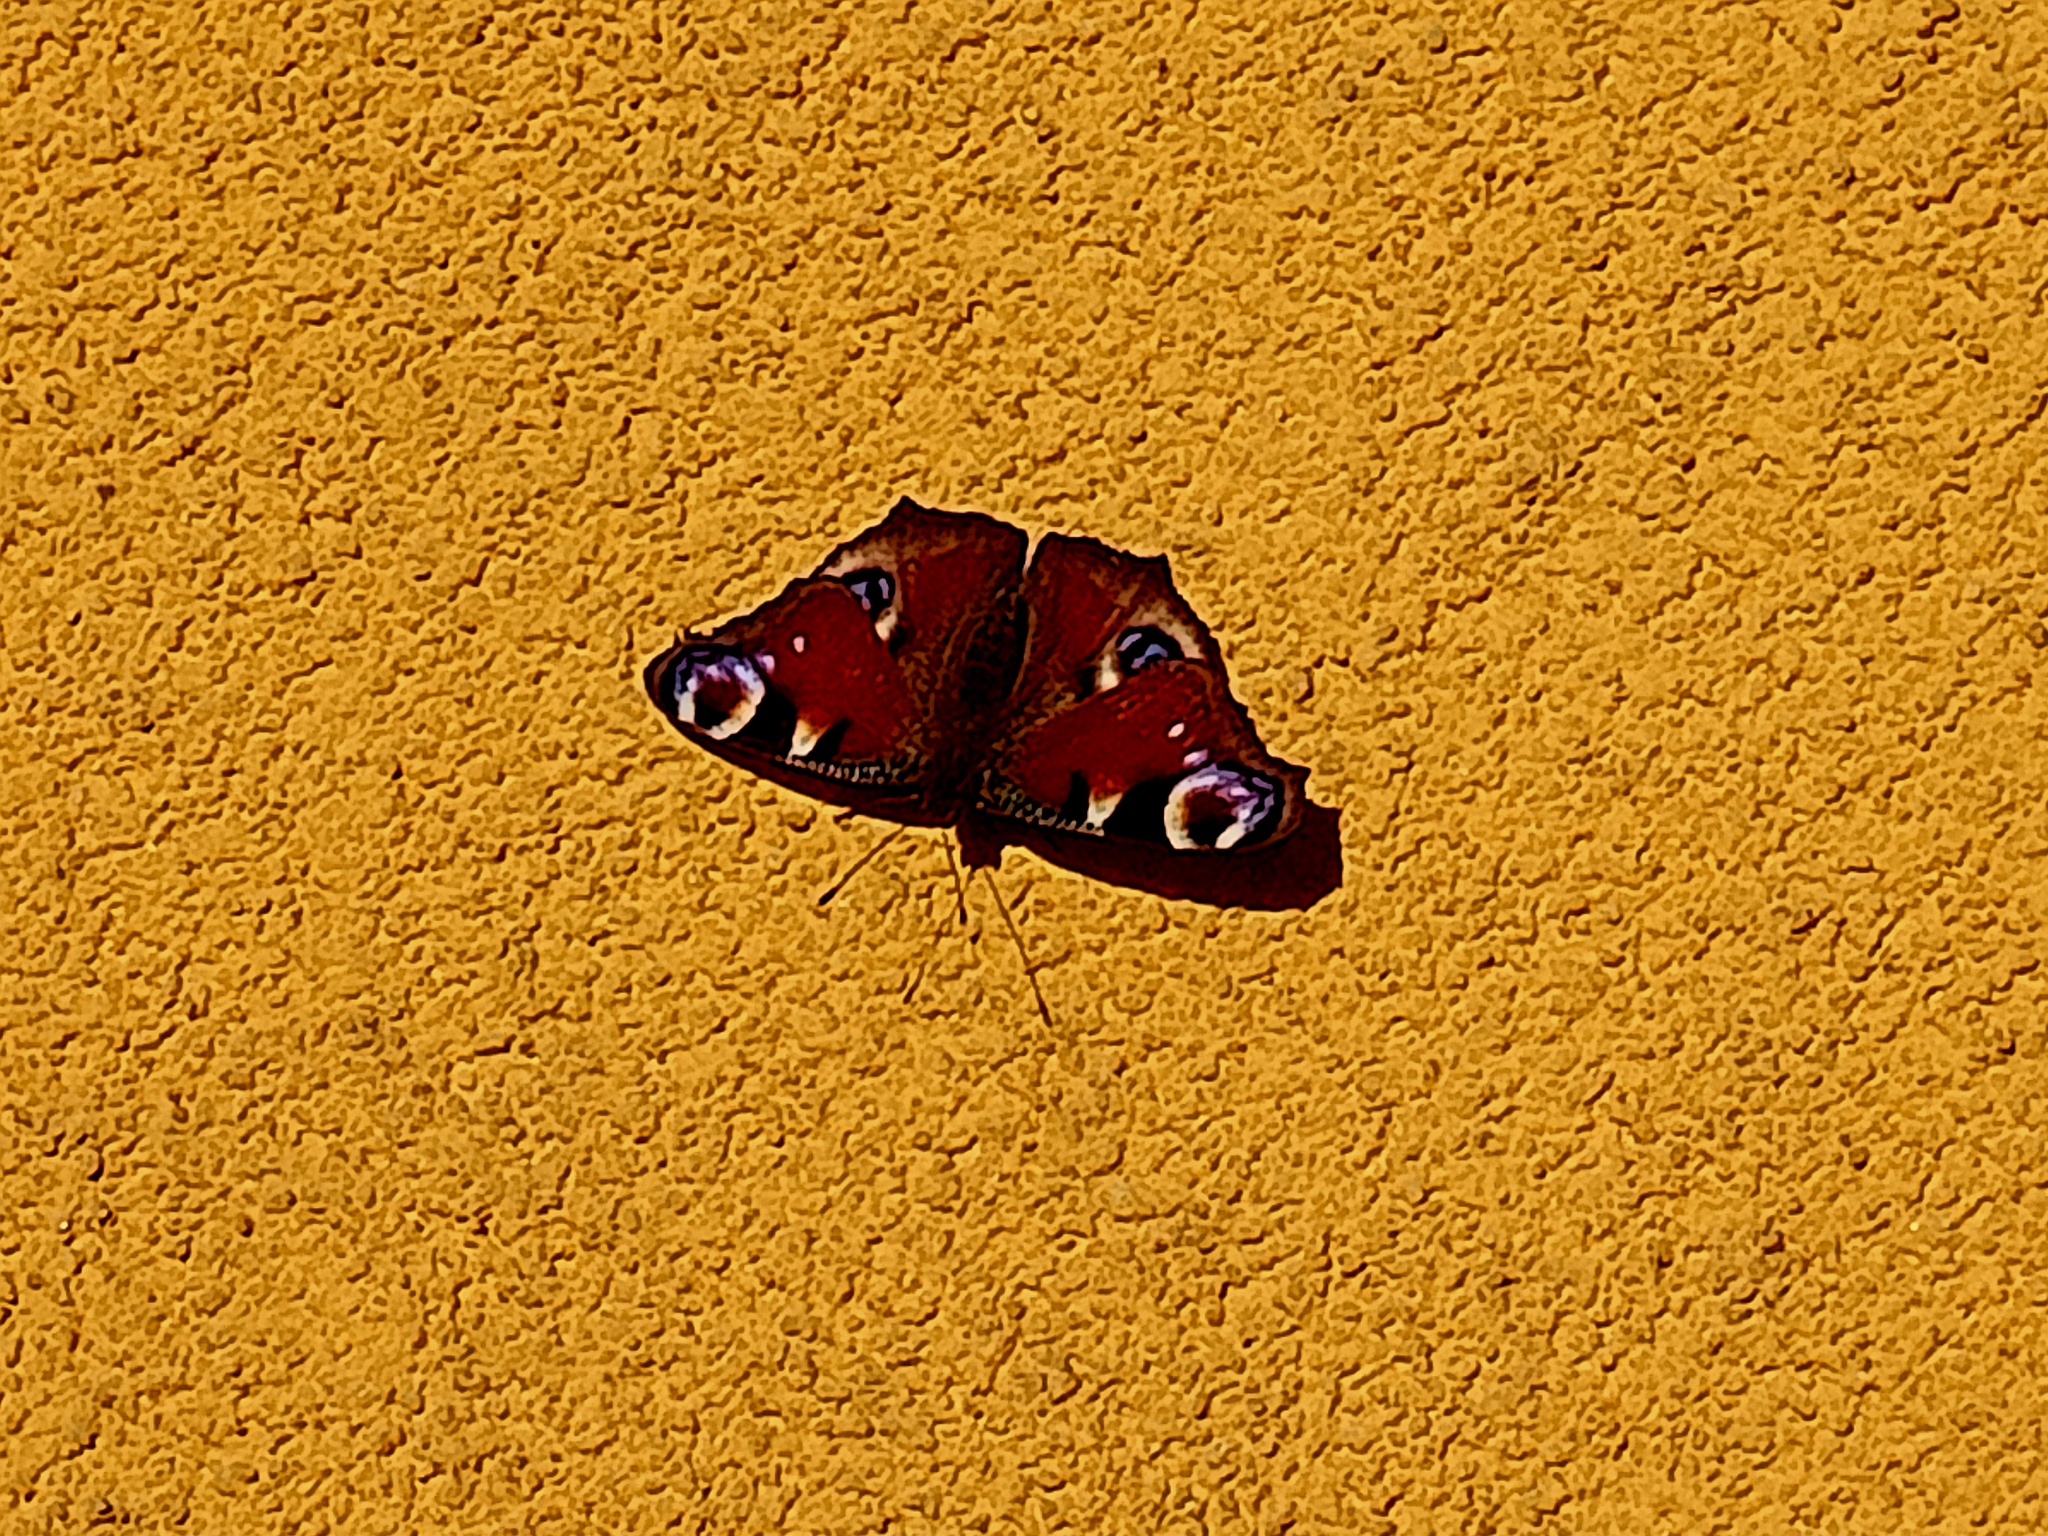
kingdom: Animalia
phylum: Arthropoda
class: Insecta
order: Lepidoptera
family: Nymphalidae
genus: Aglais
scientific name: Aglais io
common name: Peacock
